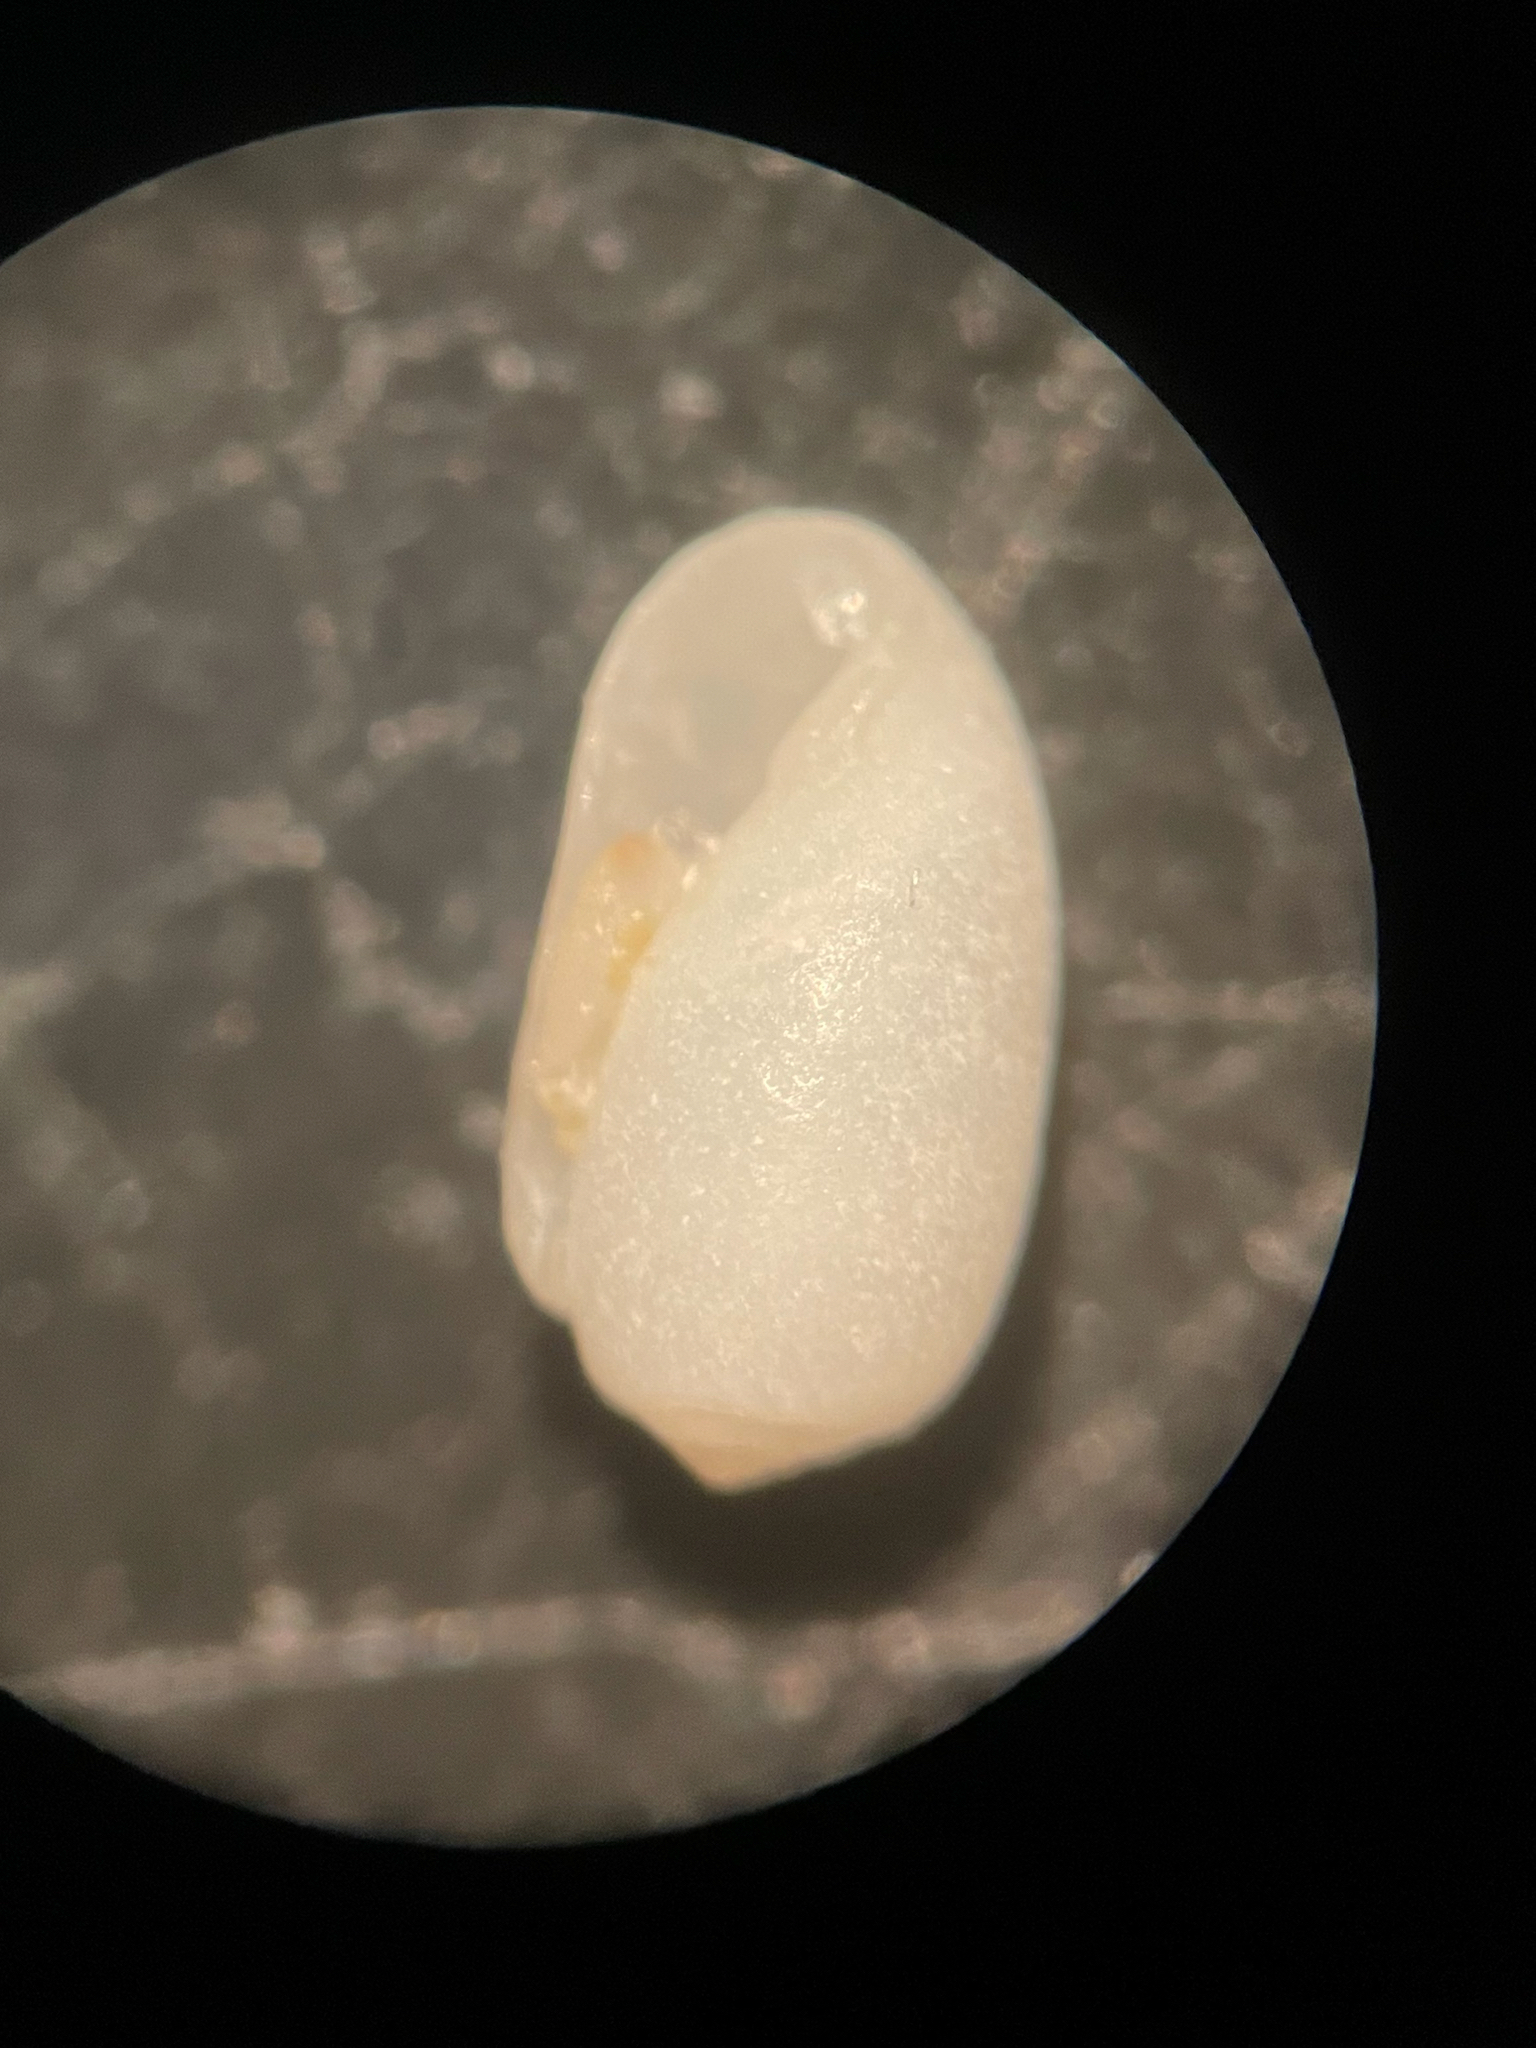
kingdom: Animalia
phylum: Mollusca
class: Gastropoda
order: Cephalaspidea
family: Tornatinidae
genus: Acteocina
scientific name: Acteocina candei
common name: Cande's barrel-bubble
